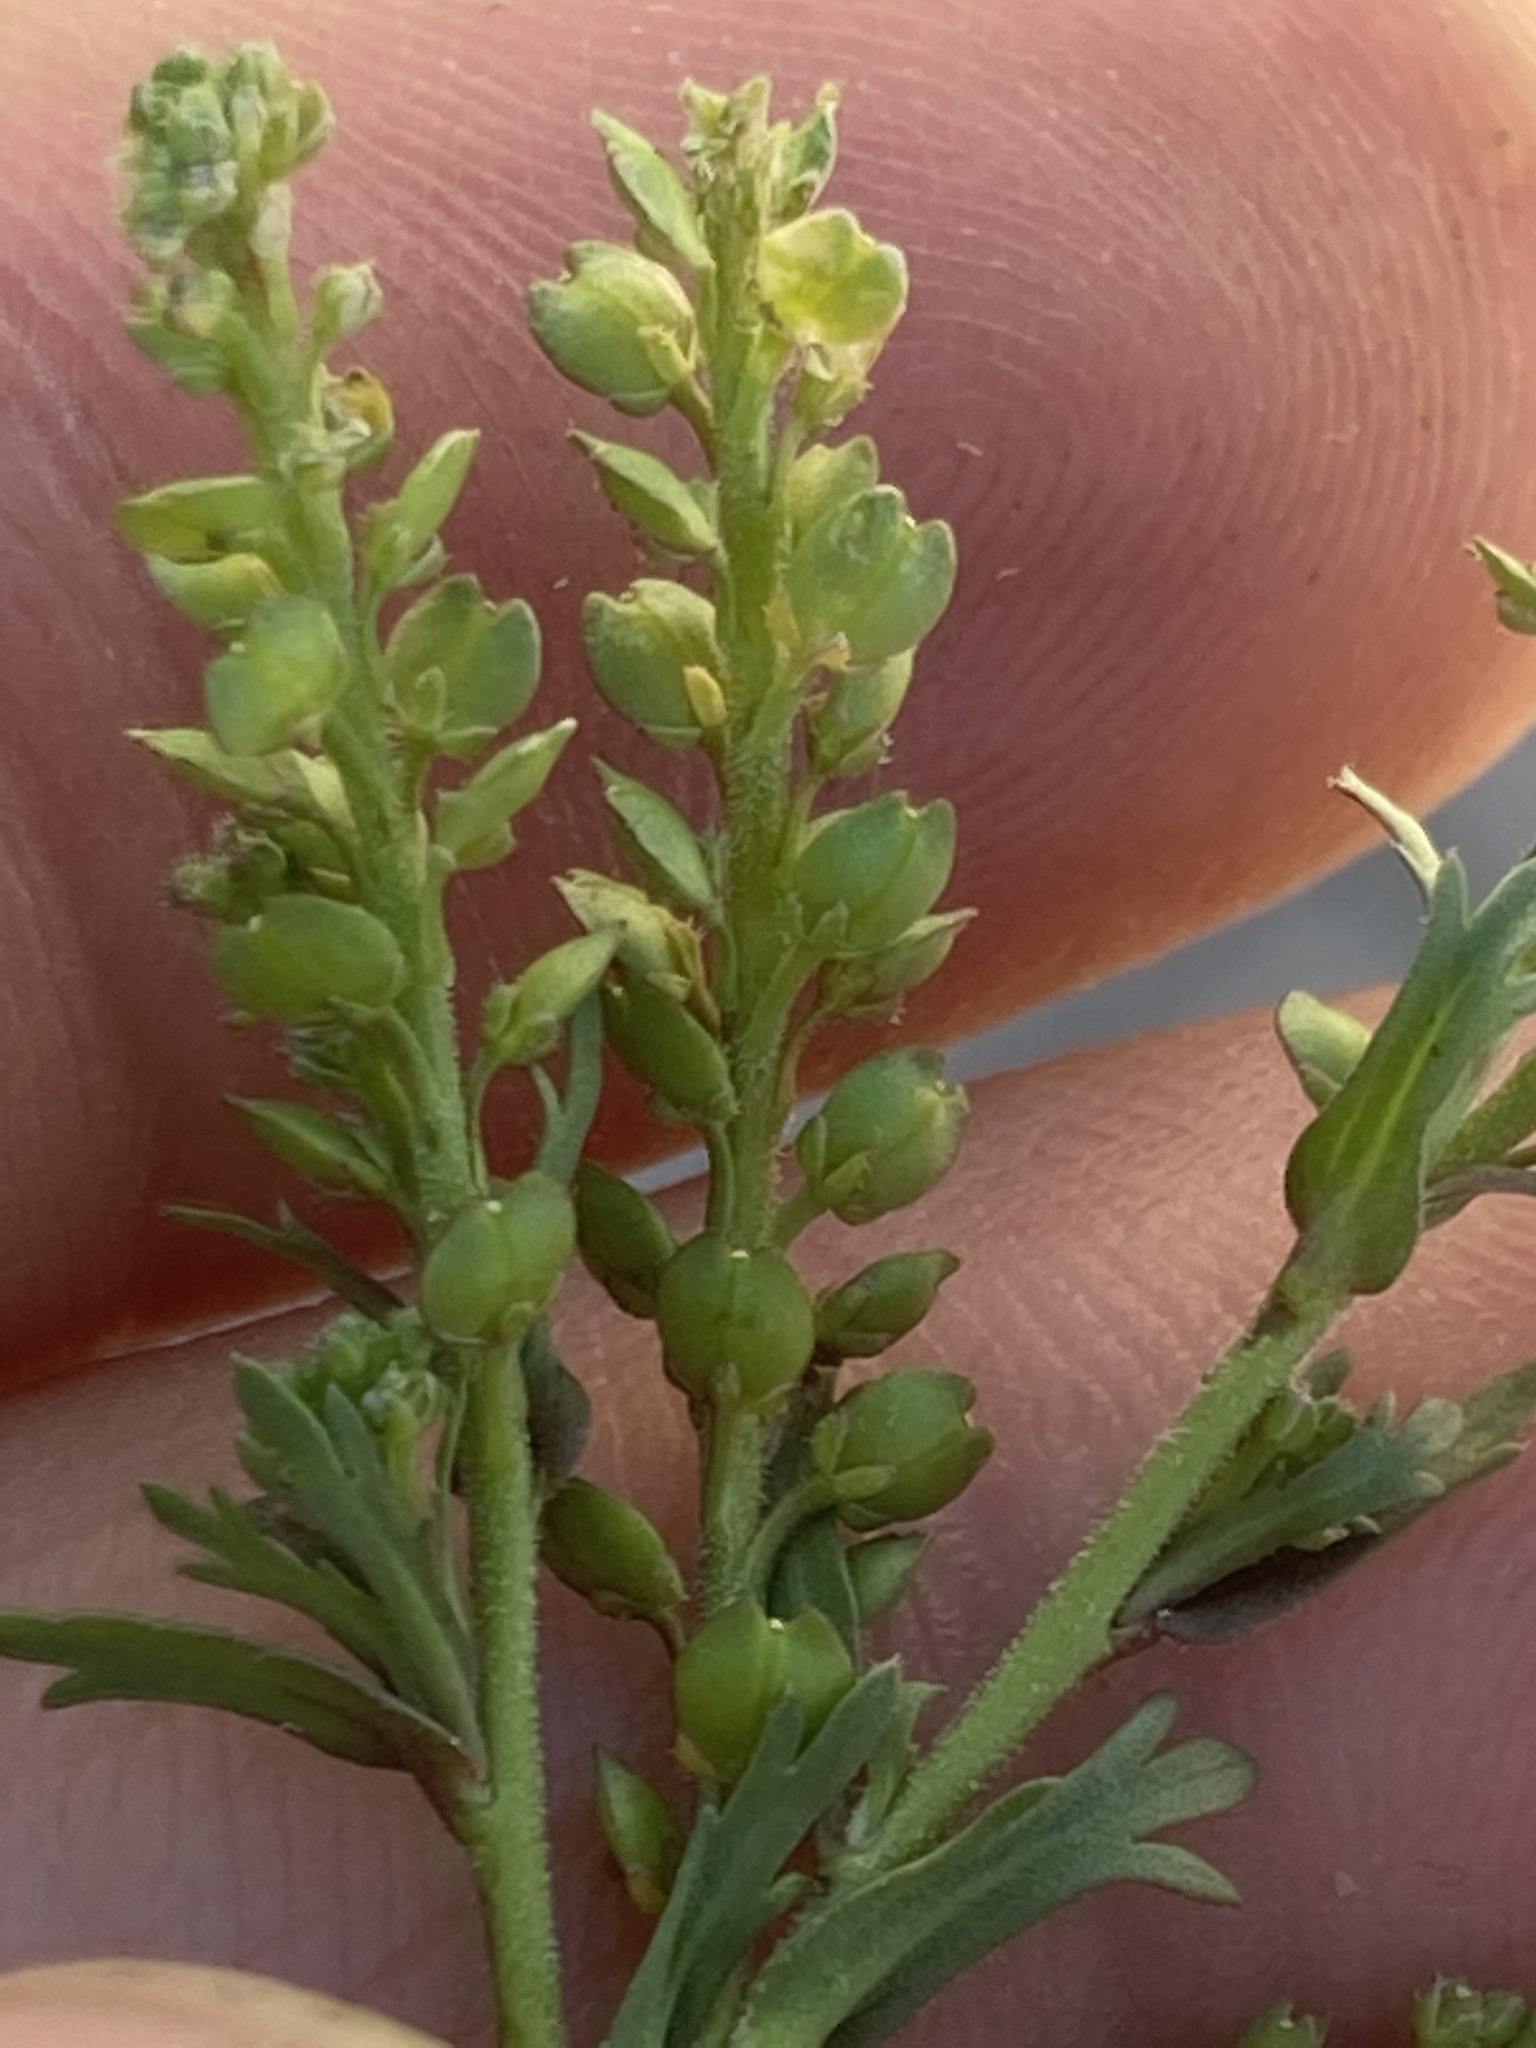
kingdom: Plantae
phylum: Tracheophyta
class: Magnoliopsida
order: Brassicales
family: Brassicaceae
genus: Lepidium
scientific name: Lepidium strictum
